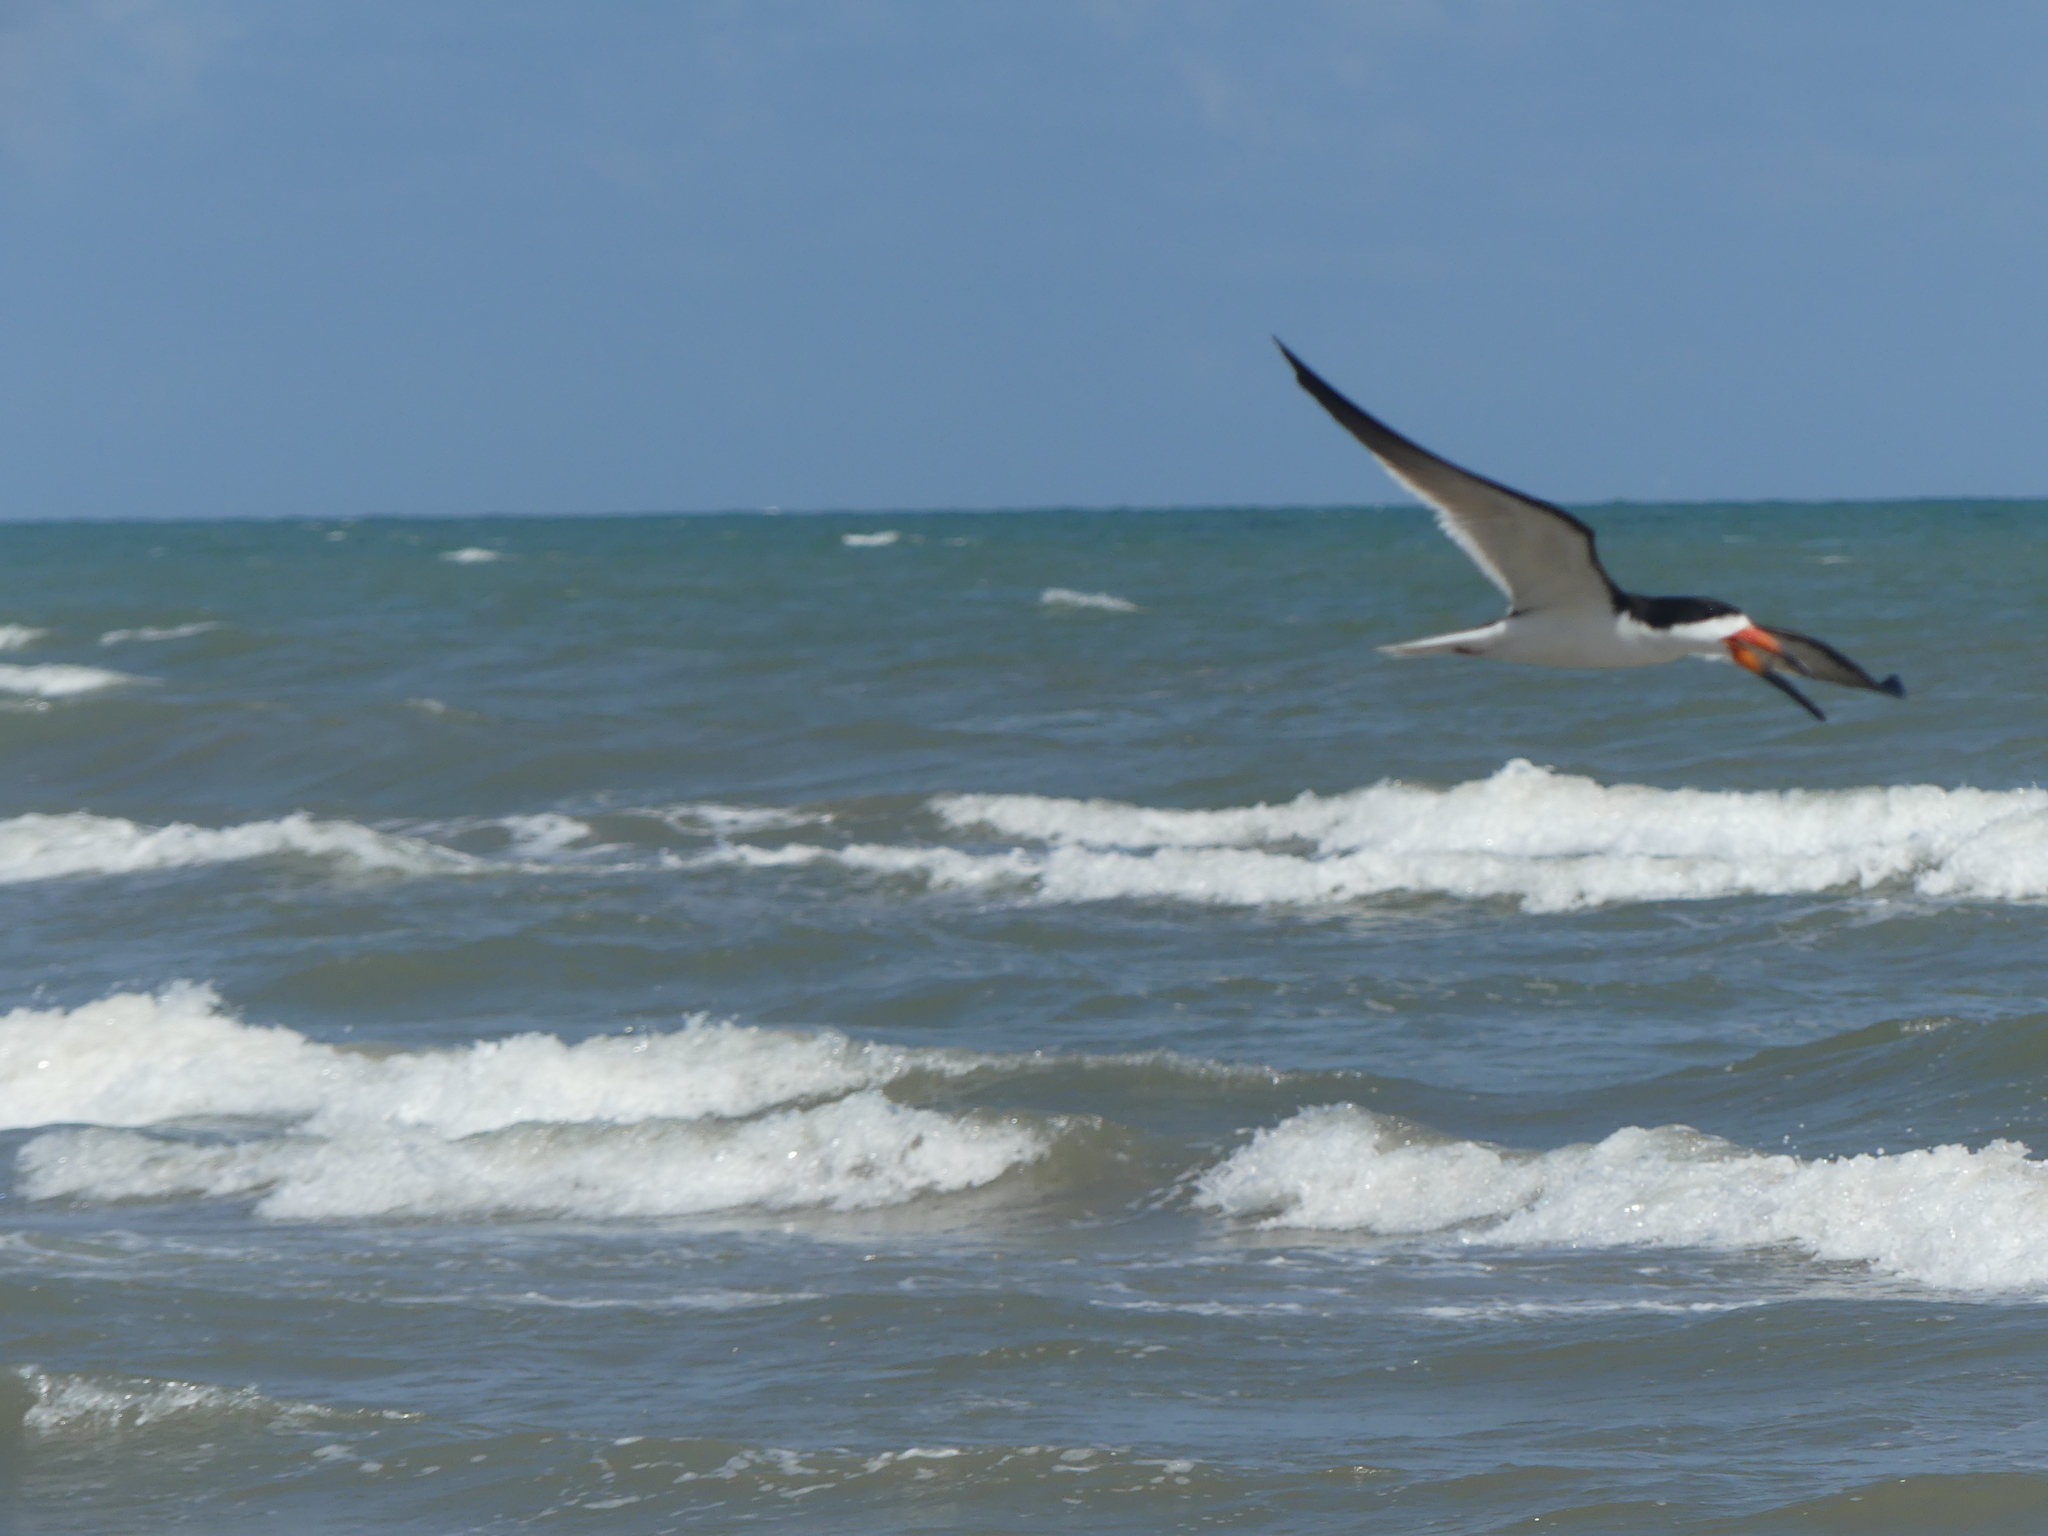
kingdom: Animalia
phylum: Chordata
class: Aves
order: Charadriiformes
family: Laridae
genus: Rynchops
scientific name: Rynchops niger
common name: Black skimmer
